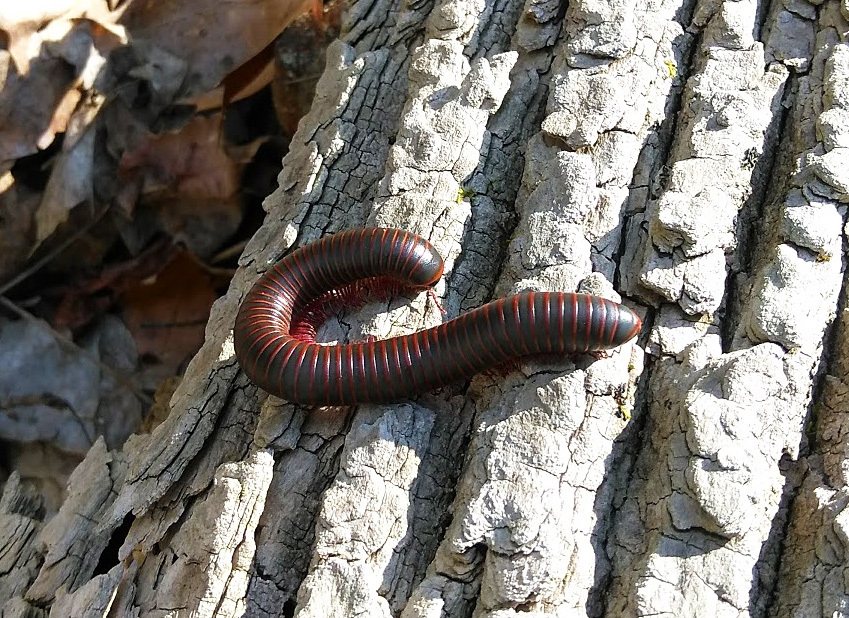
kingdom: Animalia
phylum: Arthropoda
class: Diplopoda
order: Spirobolida
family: Spirobolidae
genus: Narceus
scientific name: Narceus
